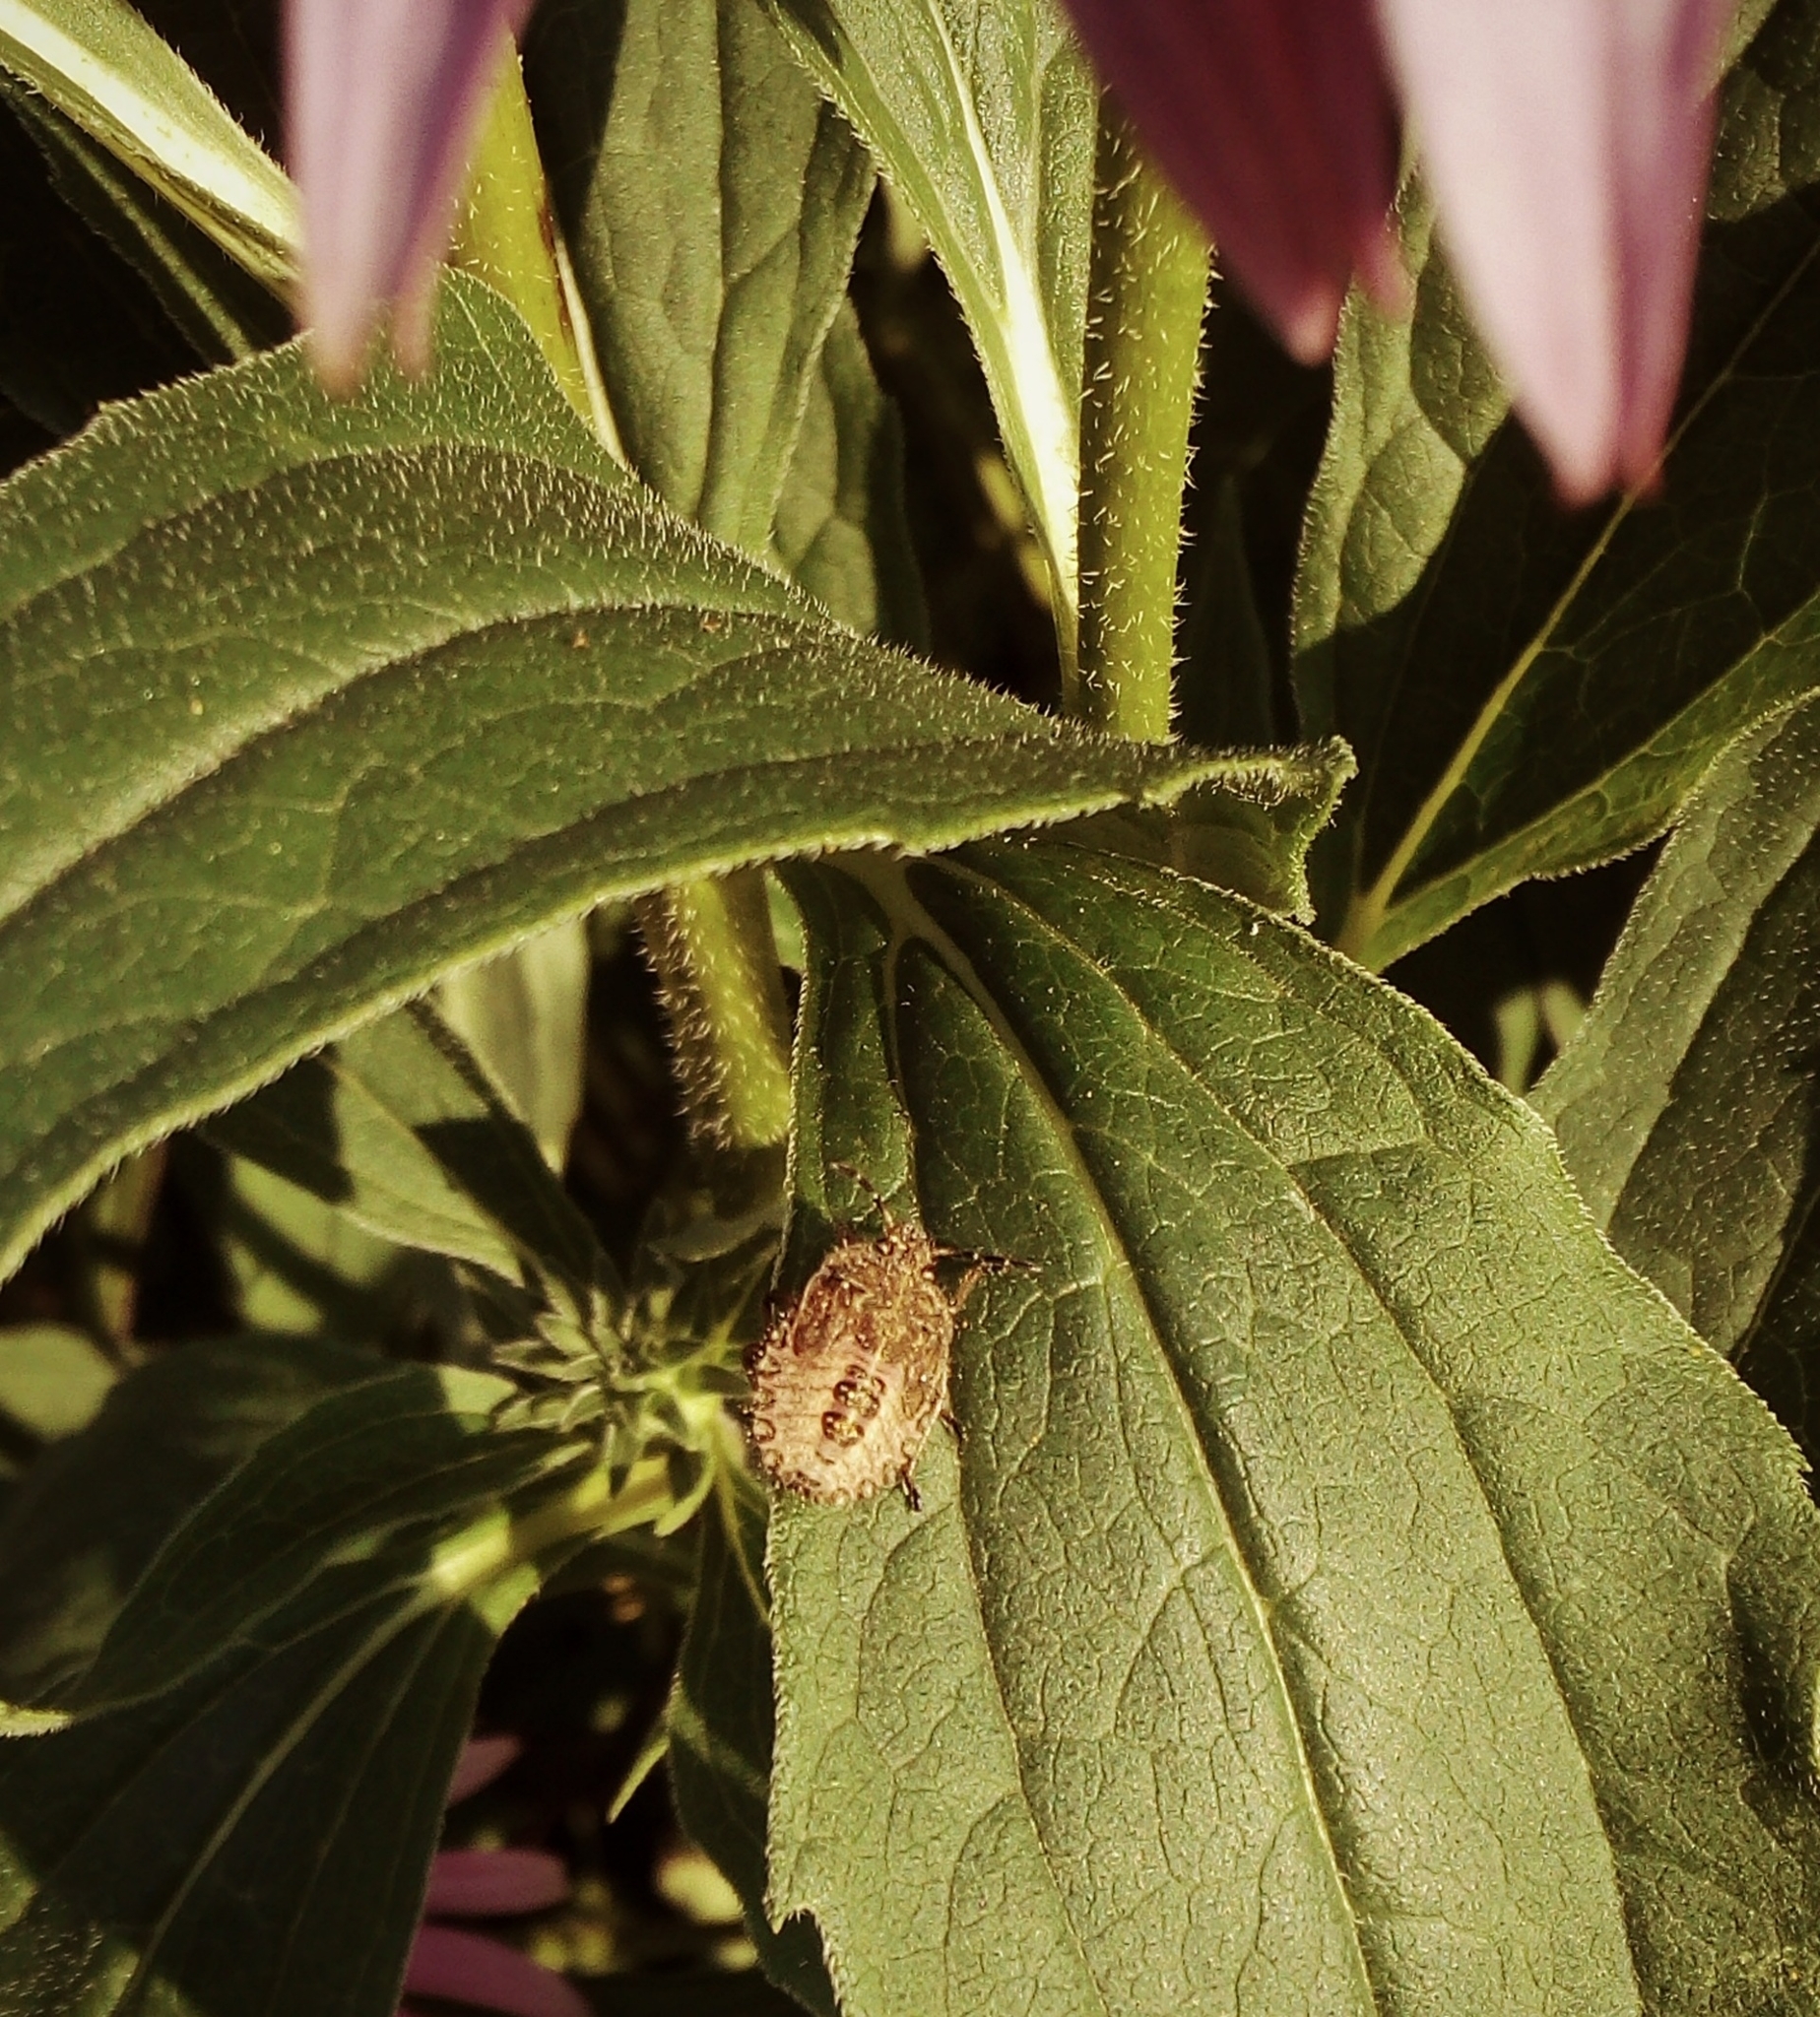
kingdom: Animalia
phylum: Arthropoda
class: Insecta
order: Hemiptera
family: Pentatomidae
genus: Dolycoris
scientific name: Dolycoris baccarum
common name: Sloe bug
